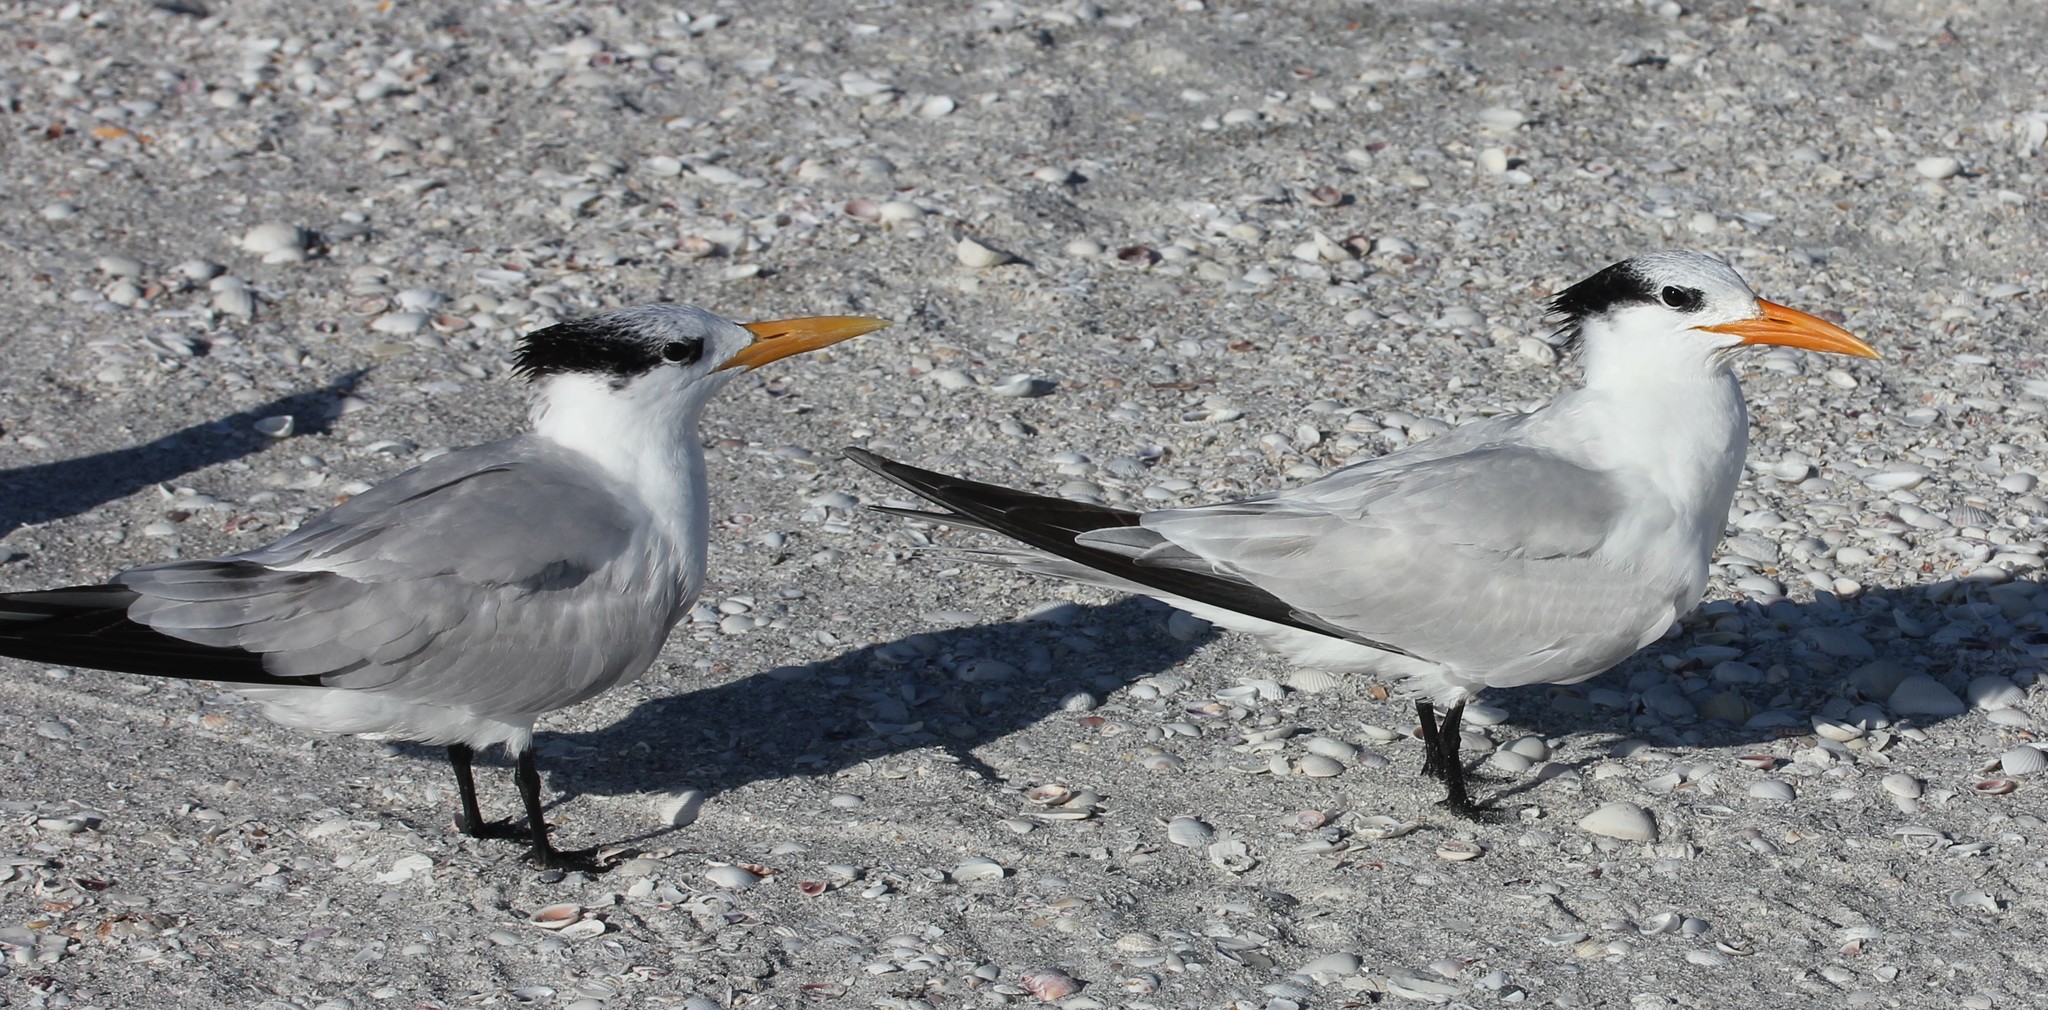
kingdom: Animalia
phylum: Chordata
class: Aves
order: Charadriiformes
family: Laridae
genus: Thalasseus
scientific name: Thalasseus maximus
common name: Royal tern
